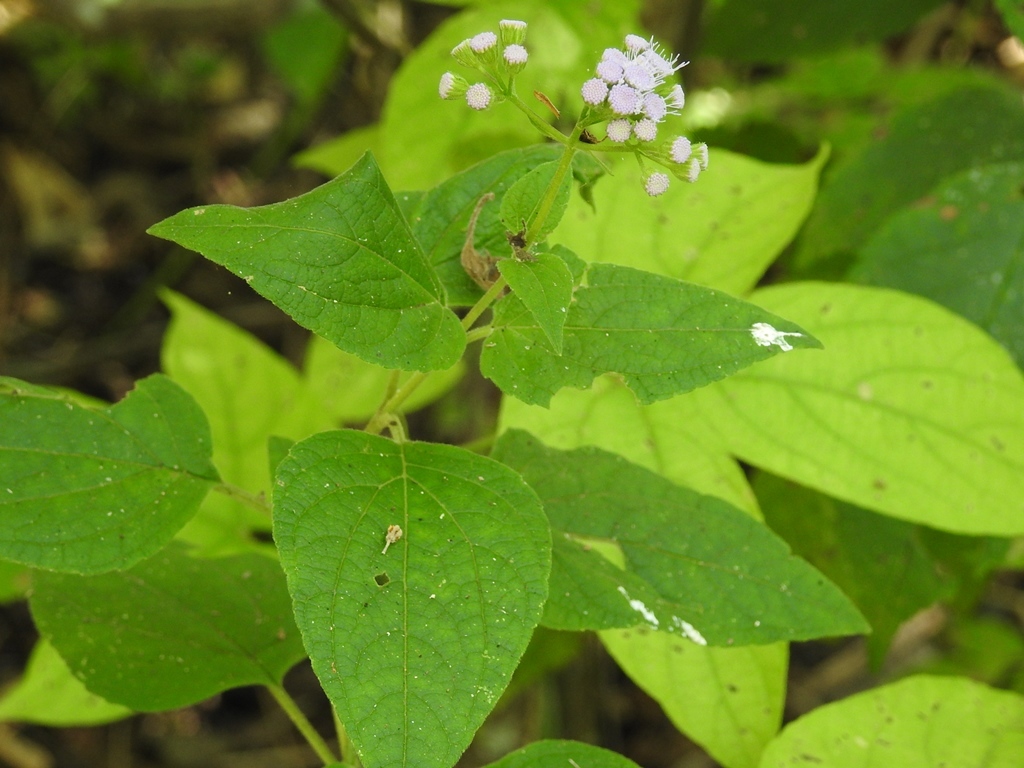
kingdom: Plantae
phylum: Tracheophyta
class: Magnoliopsida
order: Asterales
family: Asteraceae
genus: Fleischmannia
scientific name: Fleischmannia pycnocephaloides
